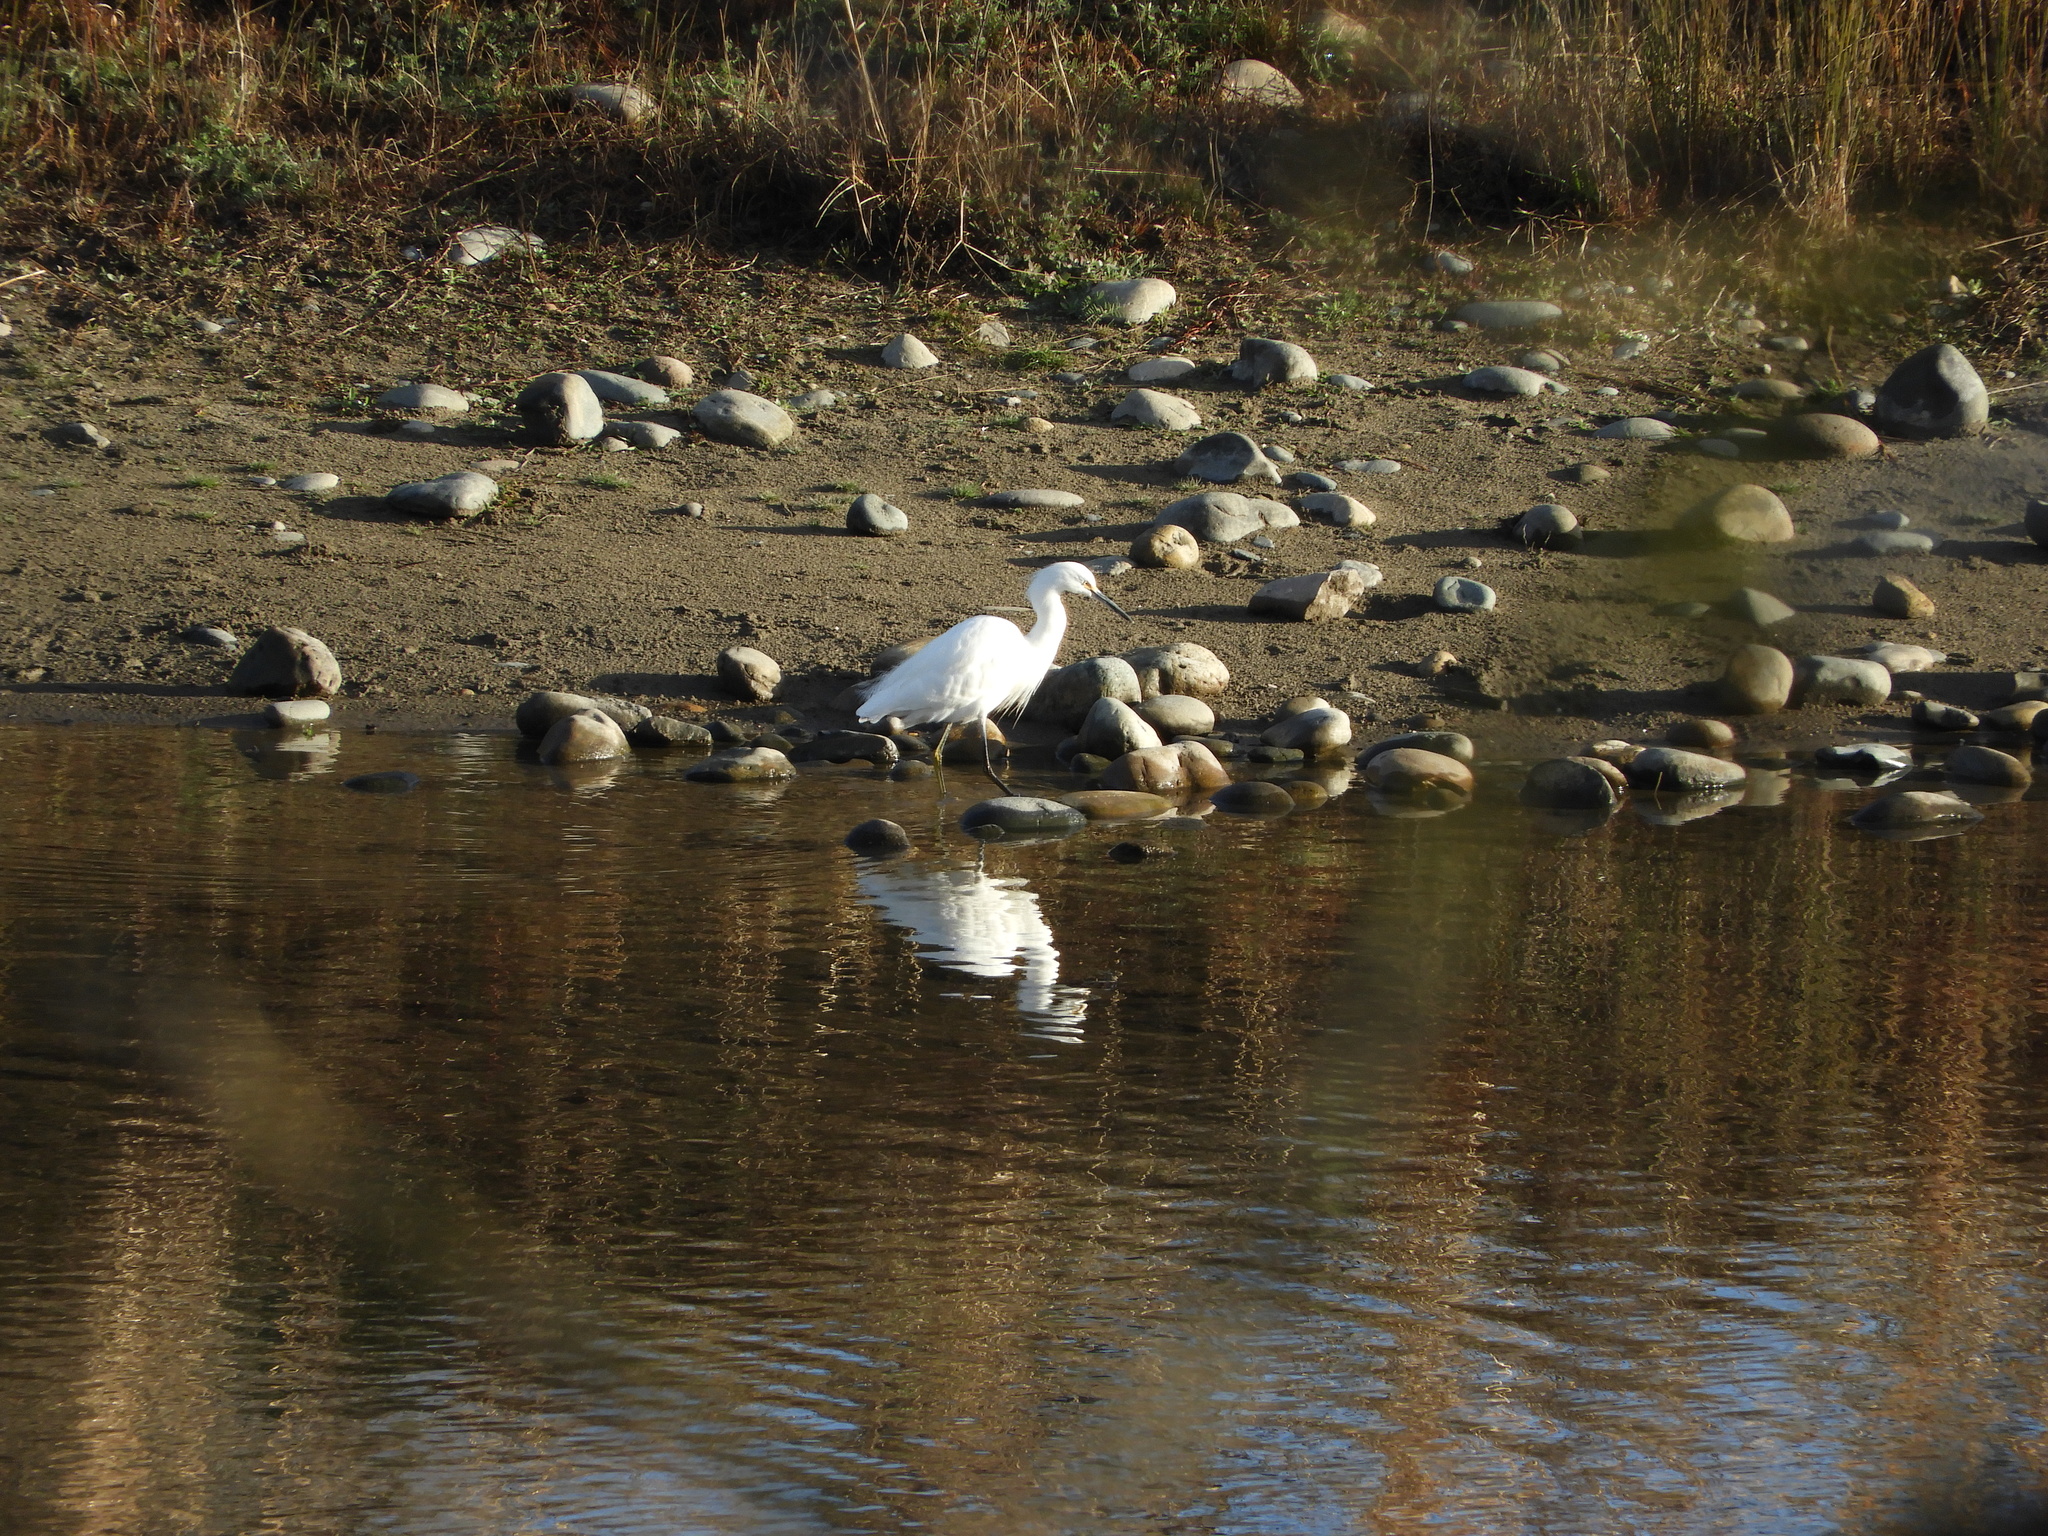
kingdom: Animalia
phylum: Chordata
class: Aves
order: Pelecaniformes
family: Ardeidae
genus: Egretta
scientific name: Egretta thula
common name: Snowy egret
